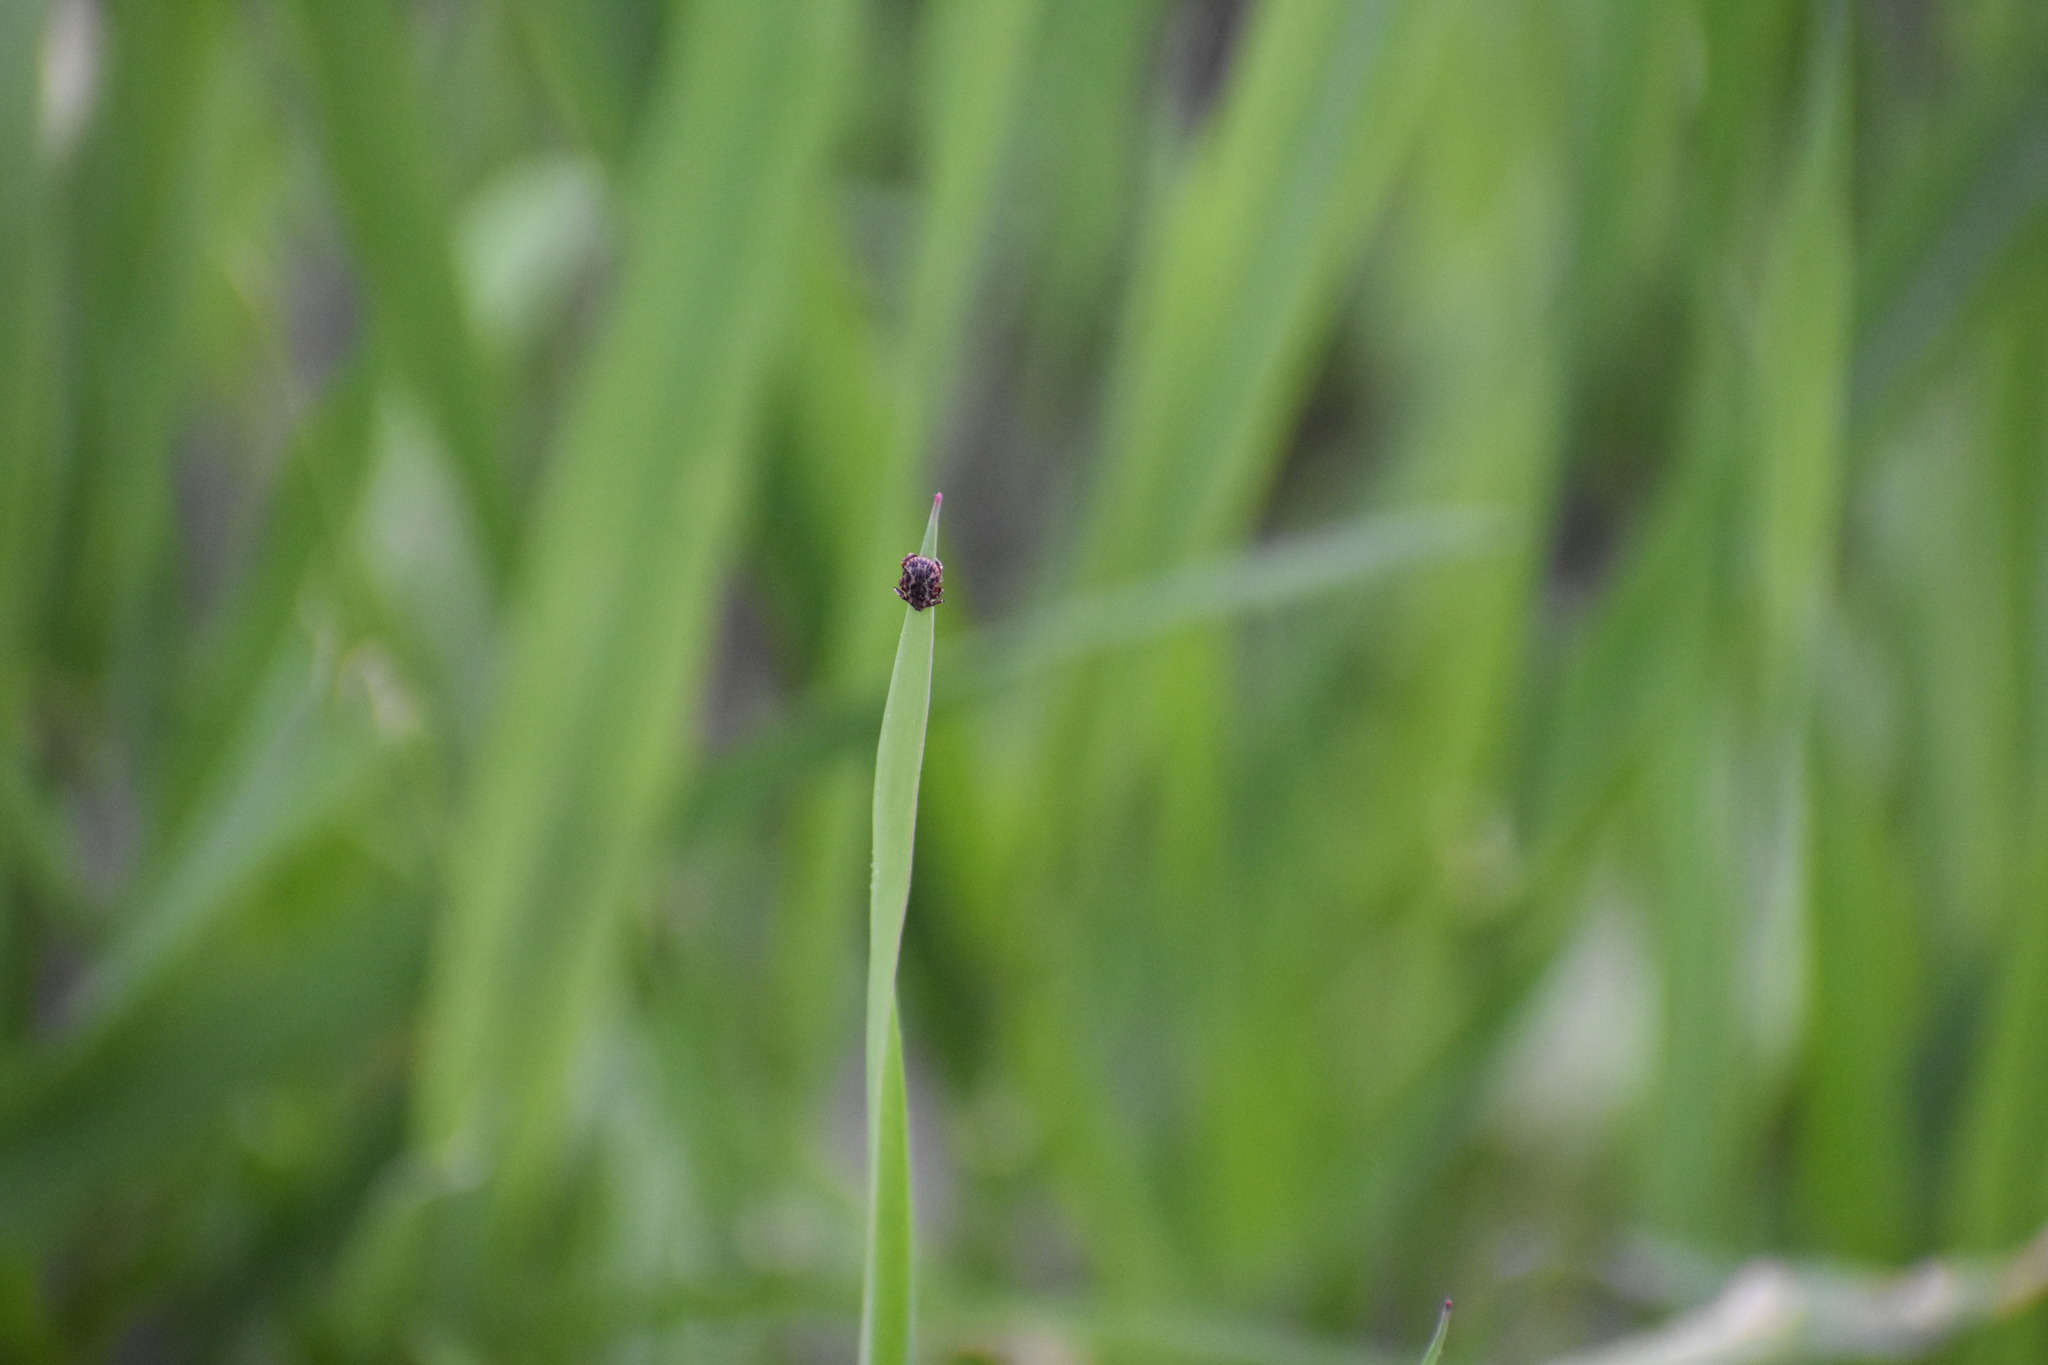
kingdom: Animalia
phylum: Arthropoda
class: Arachnida
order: Ixodida
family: Ixodidae
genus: Dermacentor
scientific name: Dermacentor variabilis
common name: American dog tick
